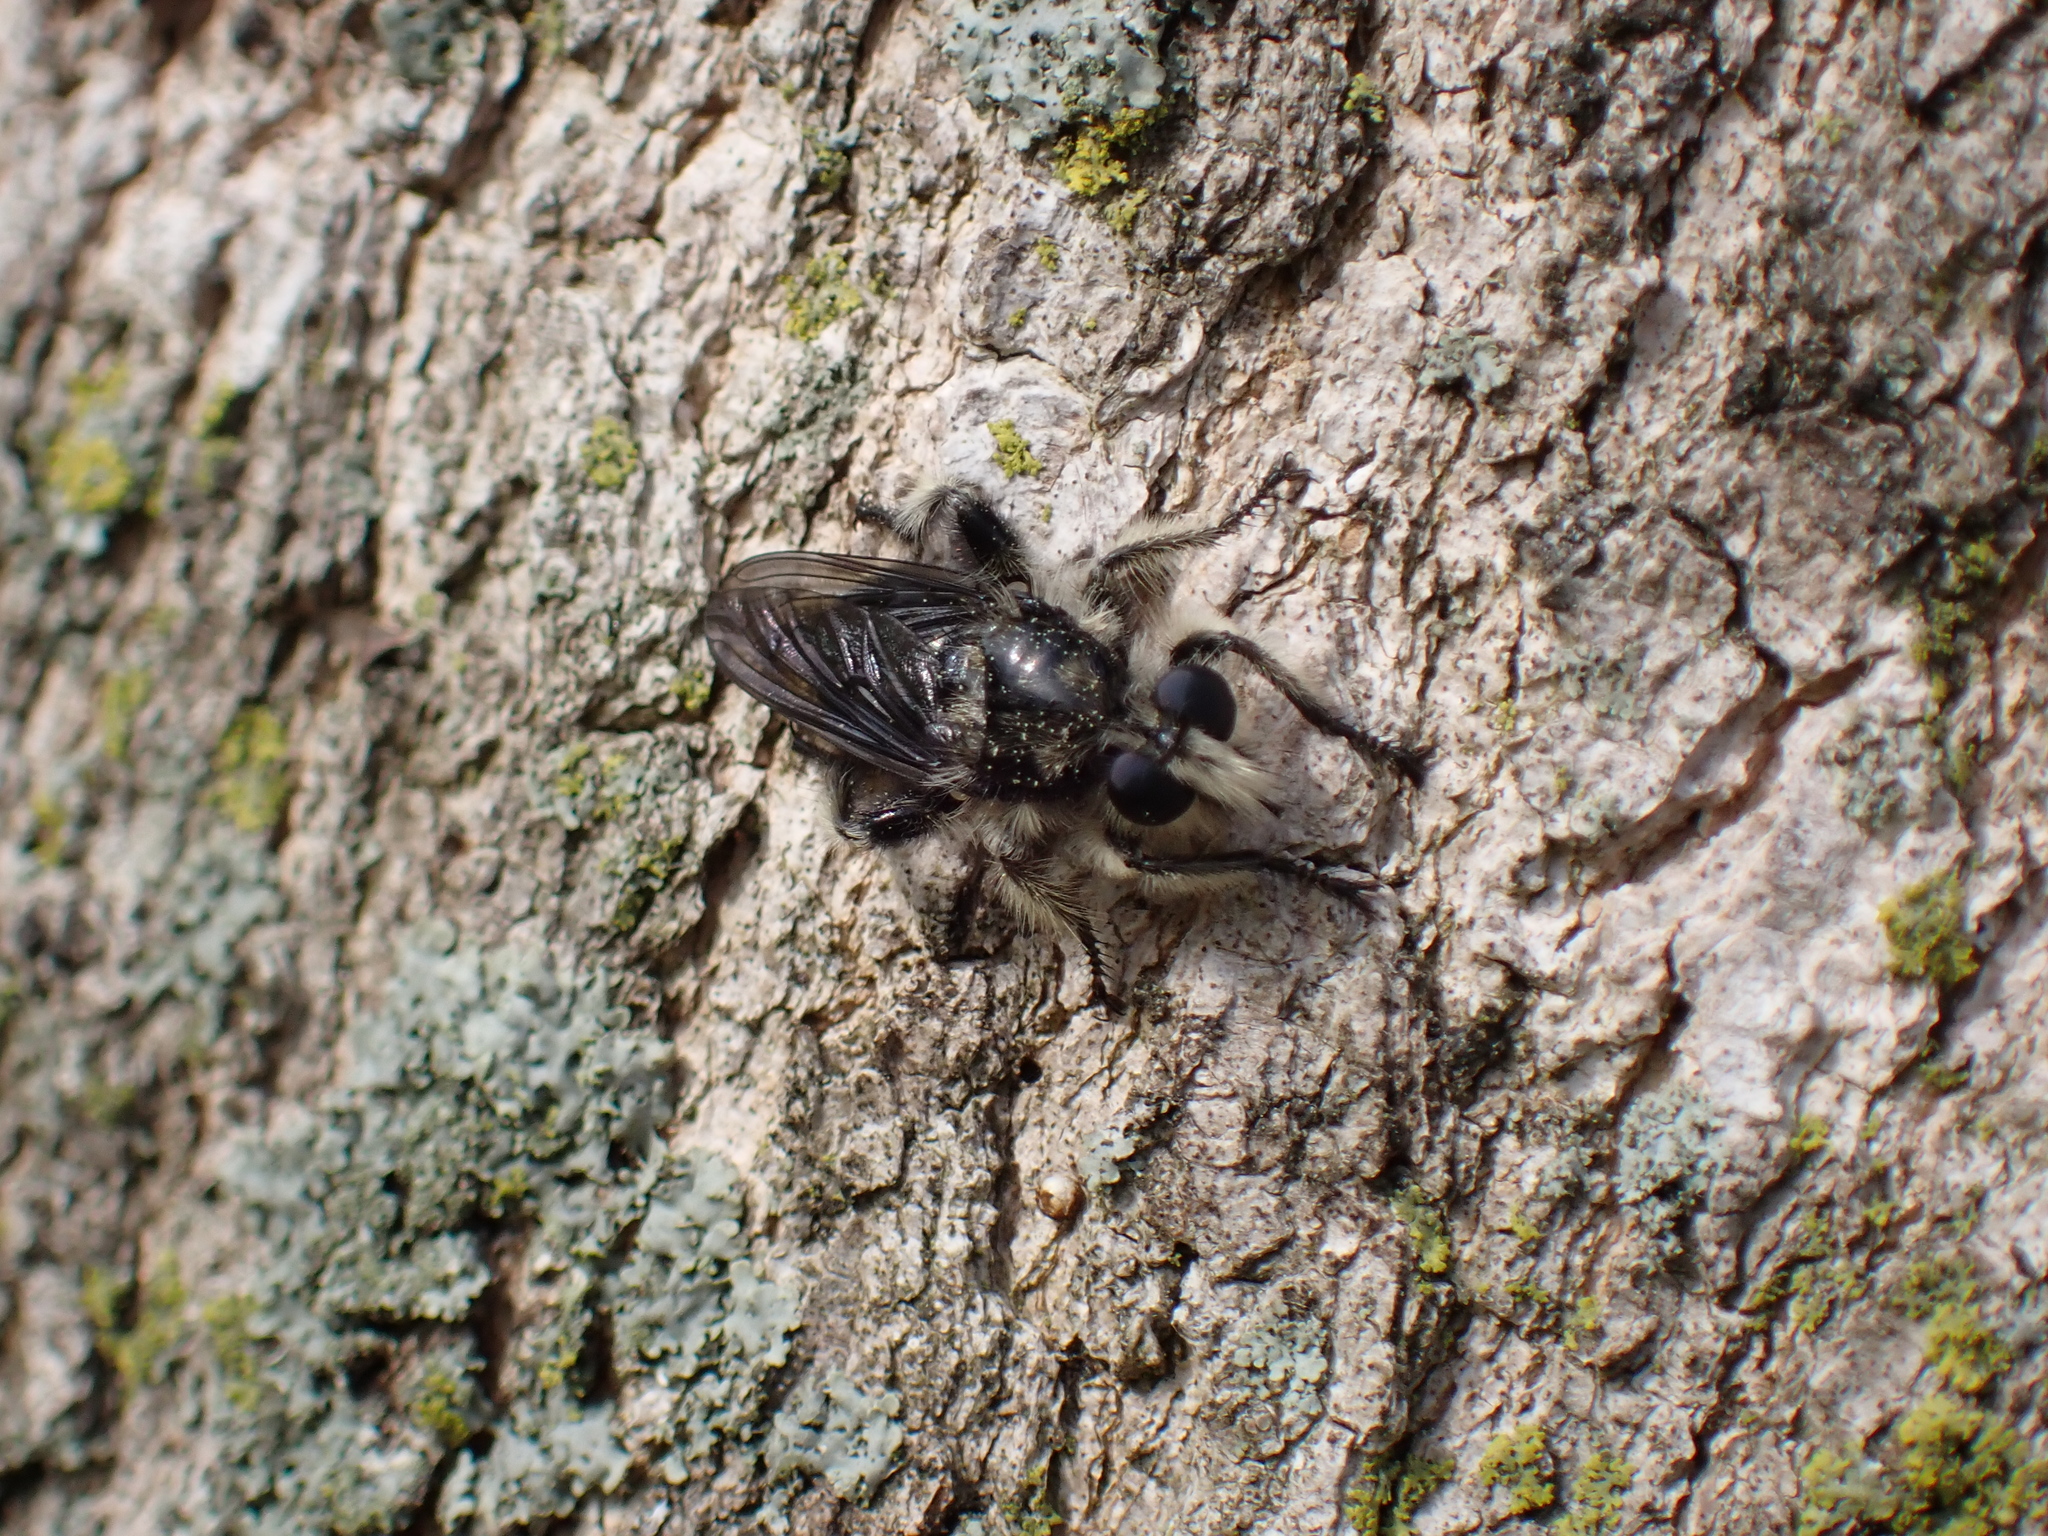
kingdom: Animalia
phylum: Arthropoda
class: Insecta
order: Diptera
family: Asilidae
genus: Laphria
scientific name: Laphria cinerea
